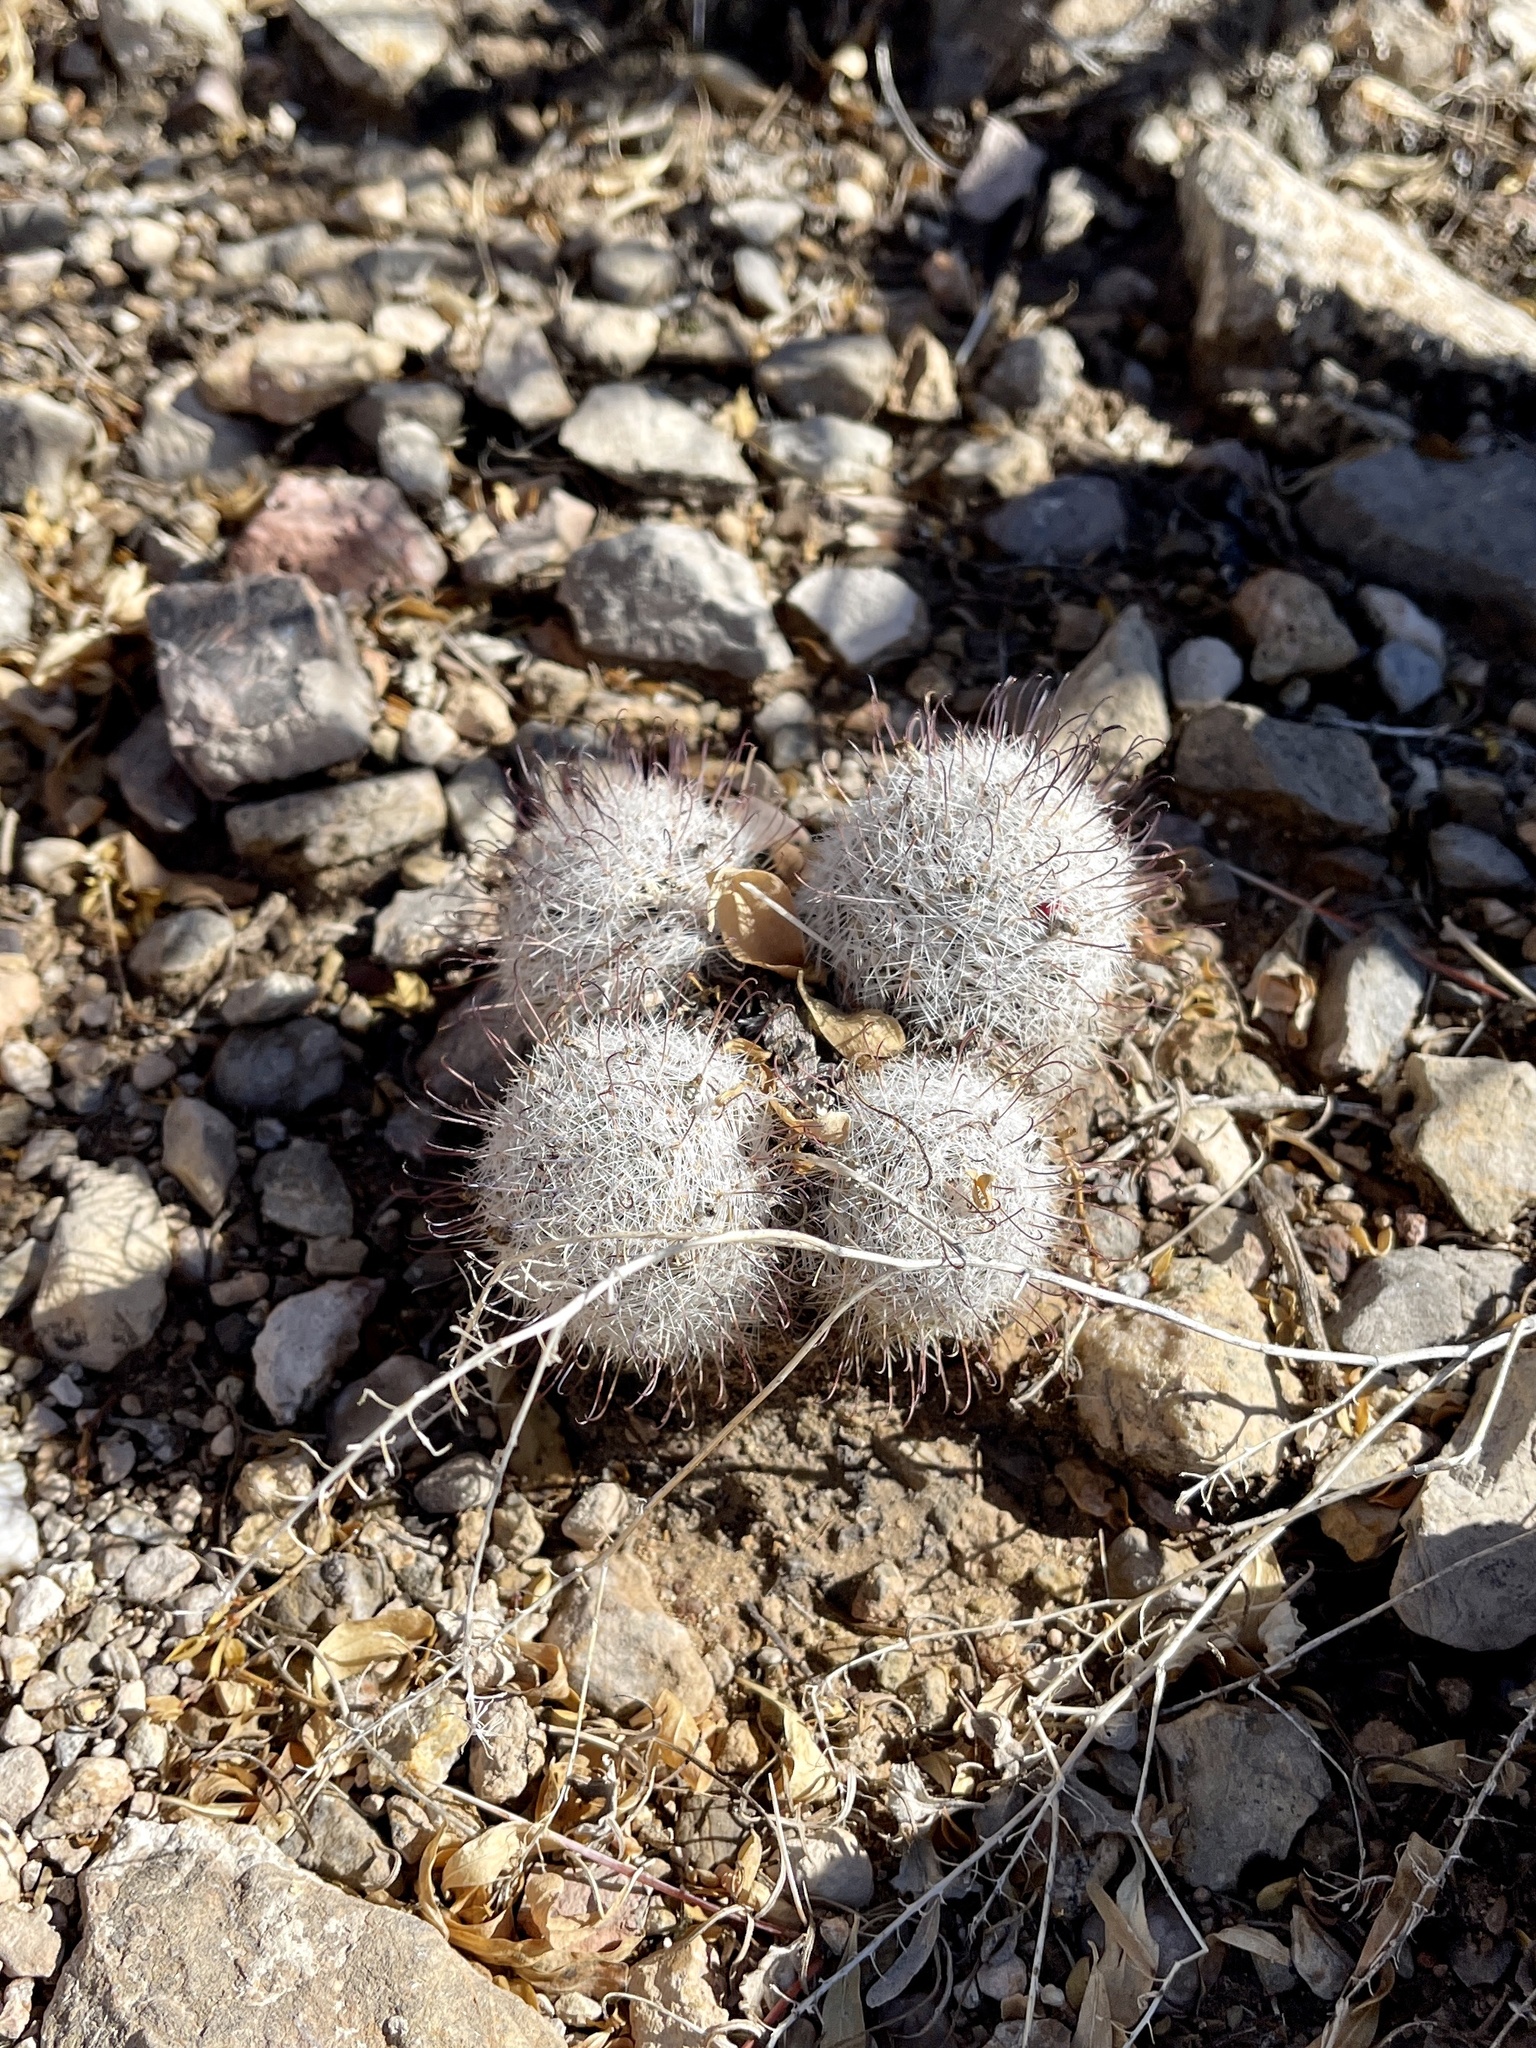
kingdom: Plantae
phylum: Tracheophyta
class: Magnoliopsida
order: Caryophyllales
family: Cactaceae
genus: Cochemiea
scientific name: Cochemiea grahamii
